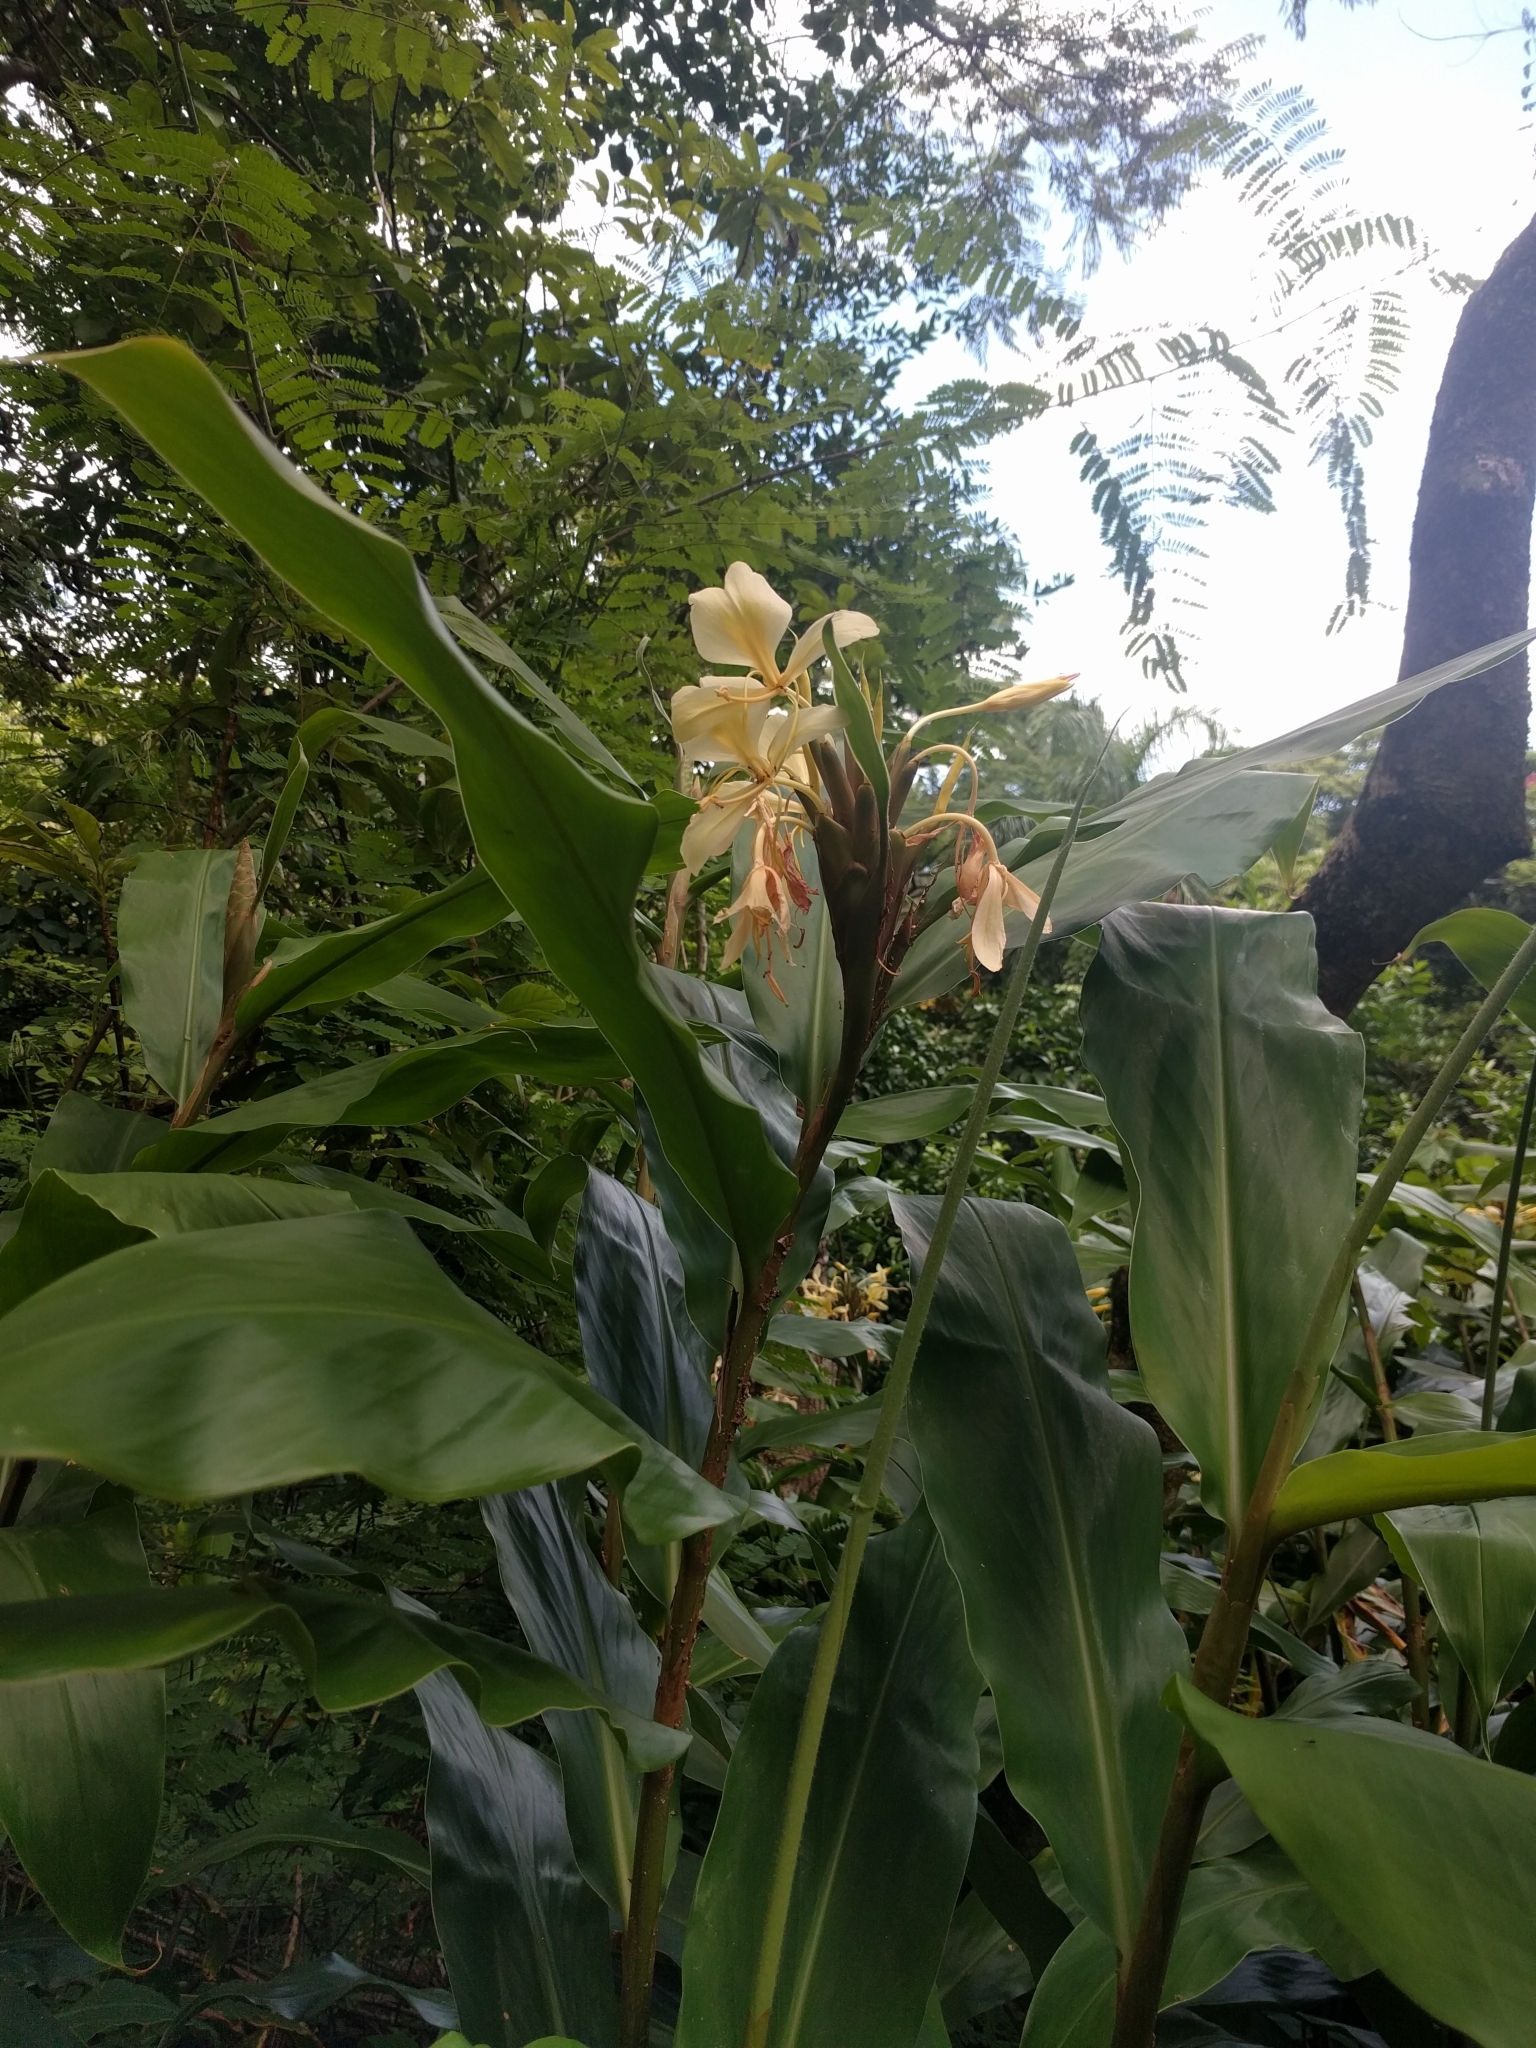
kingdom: Plantae
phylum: Tracheophyta
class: Liliopsida
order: Zingiberales
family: Zingiberaceae
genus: Hedychium
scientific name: Hedychium flavescens
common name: Yellow ginger
